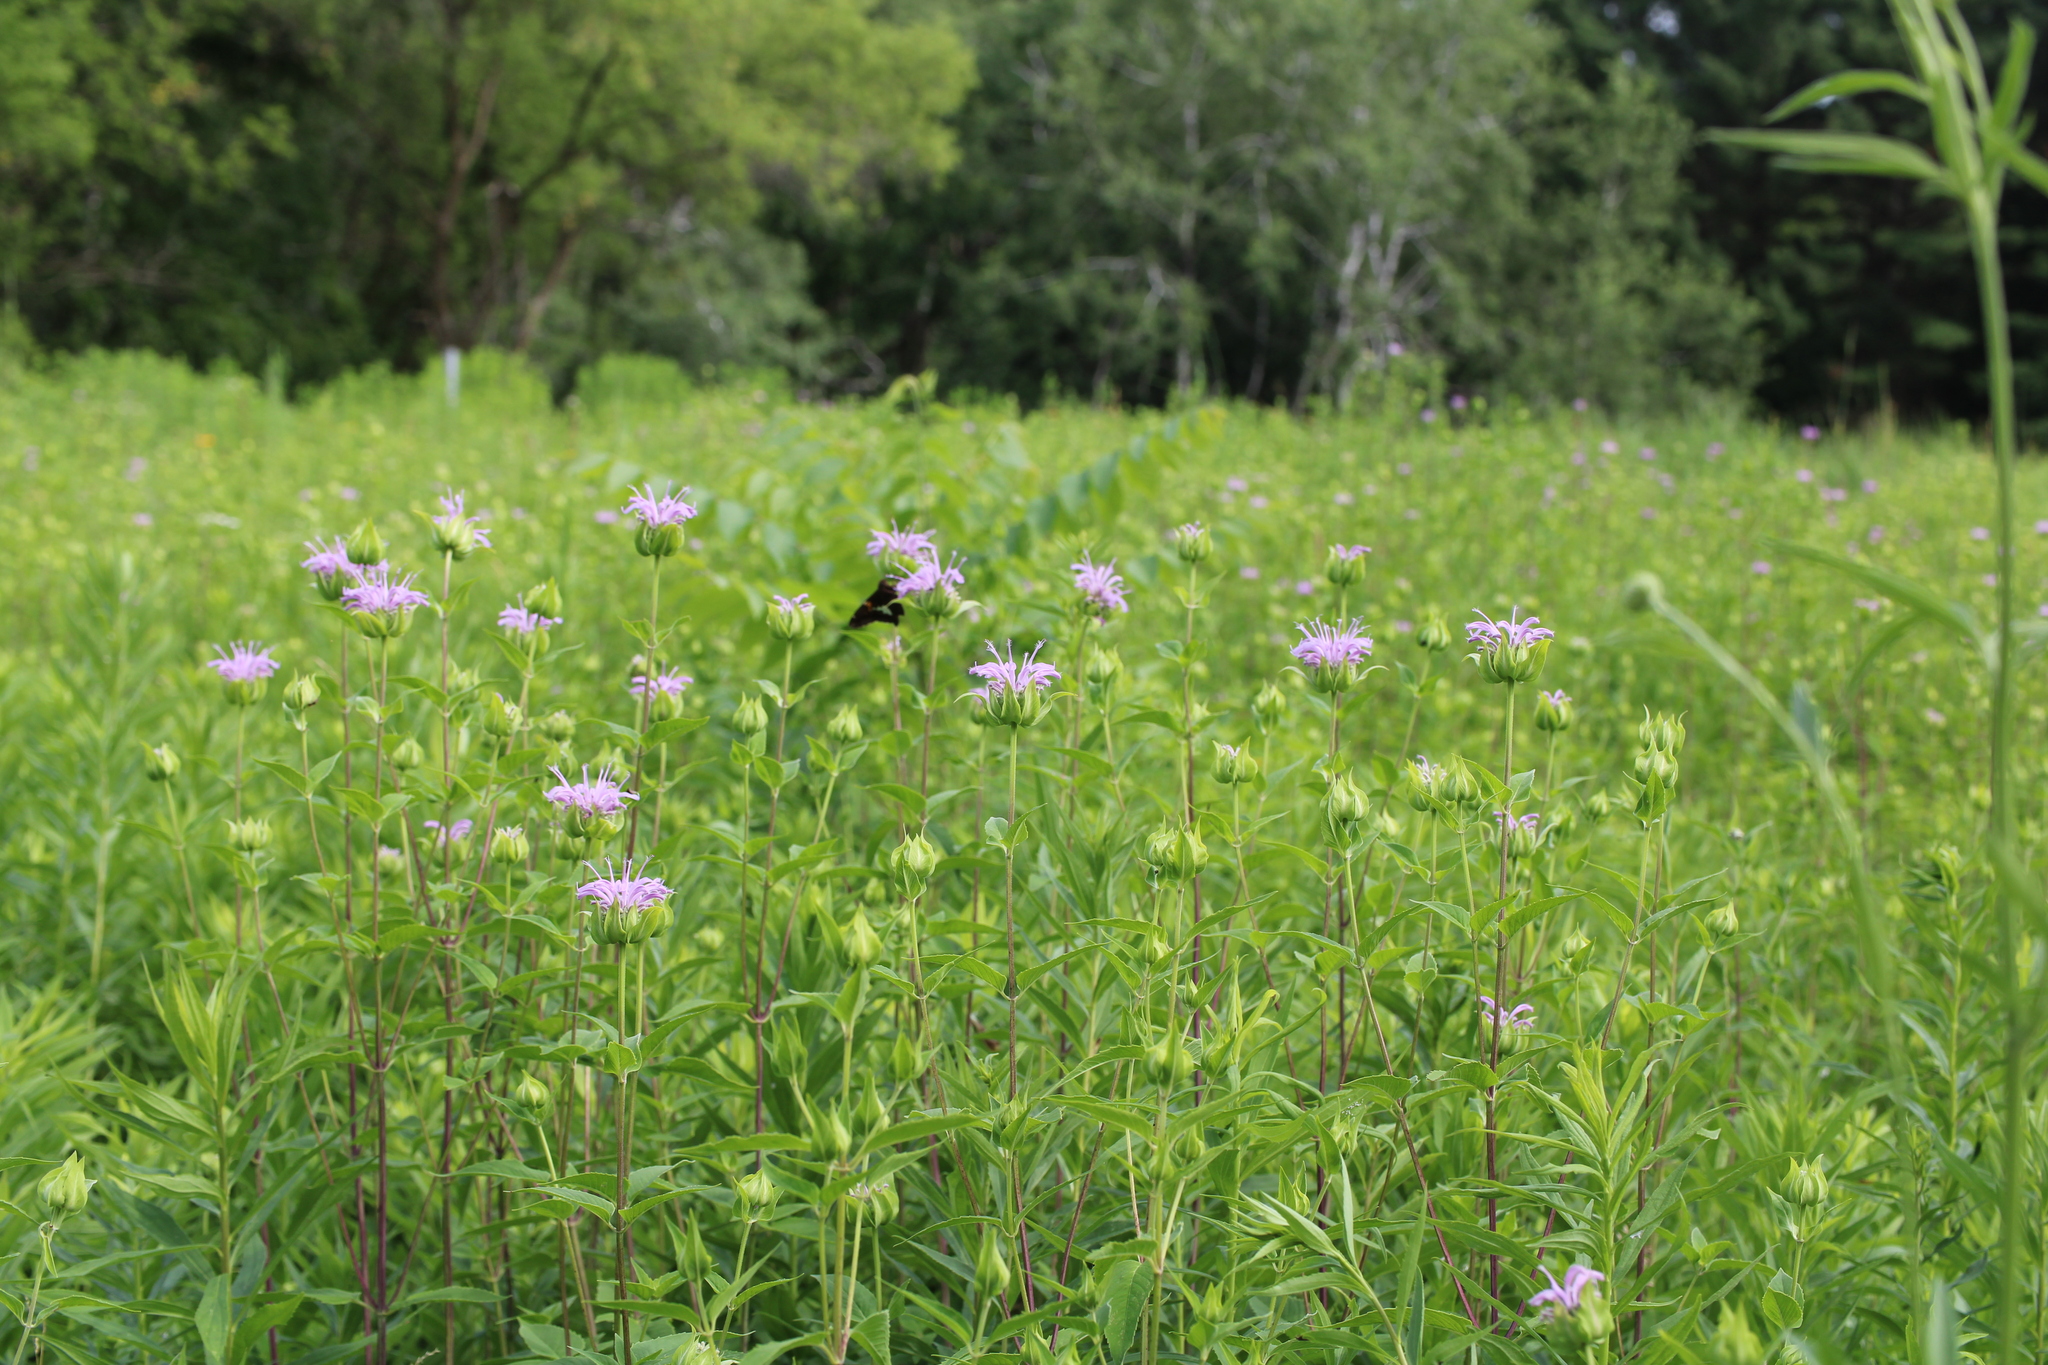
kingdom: Animalia
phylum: Arthropoda
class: Insecta
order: Lepidoptera
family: Hesperiidae
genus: Epargyreus
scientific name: Epargyreus clarus
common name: Silver-spotted skipper
